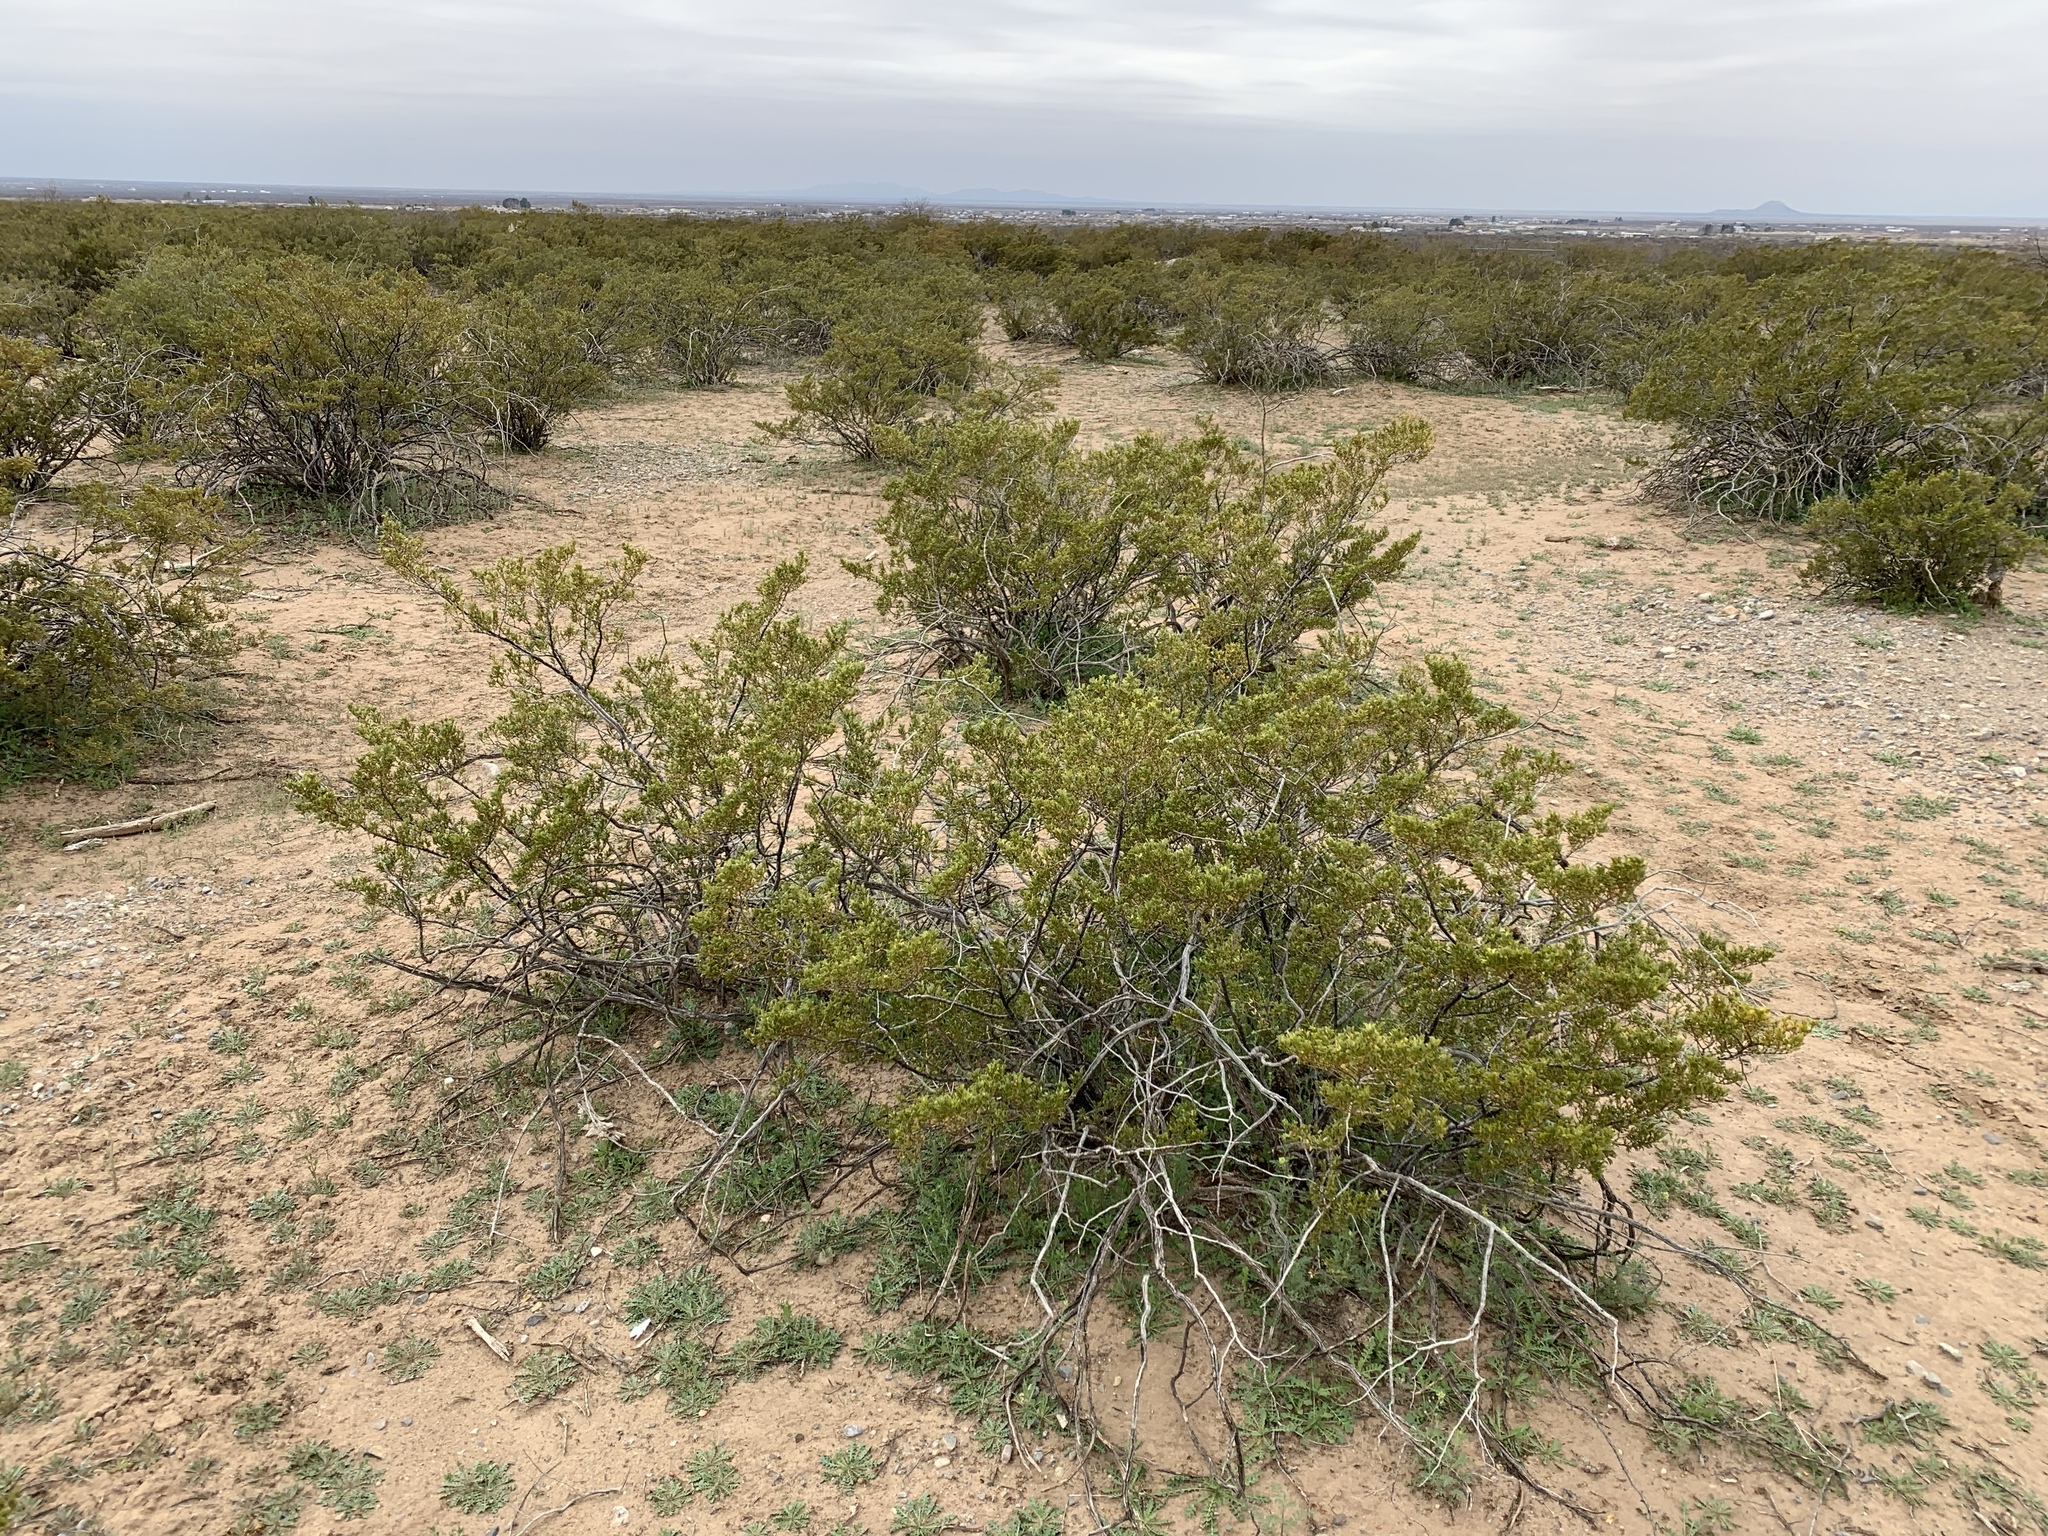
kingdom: Plantae
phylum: Tracheophyta
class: Magnoliopsida
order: Zygophyllales
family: Zygophyllaceae
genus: Larrea
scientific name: Larrea tridentata
